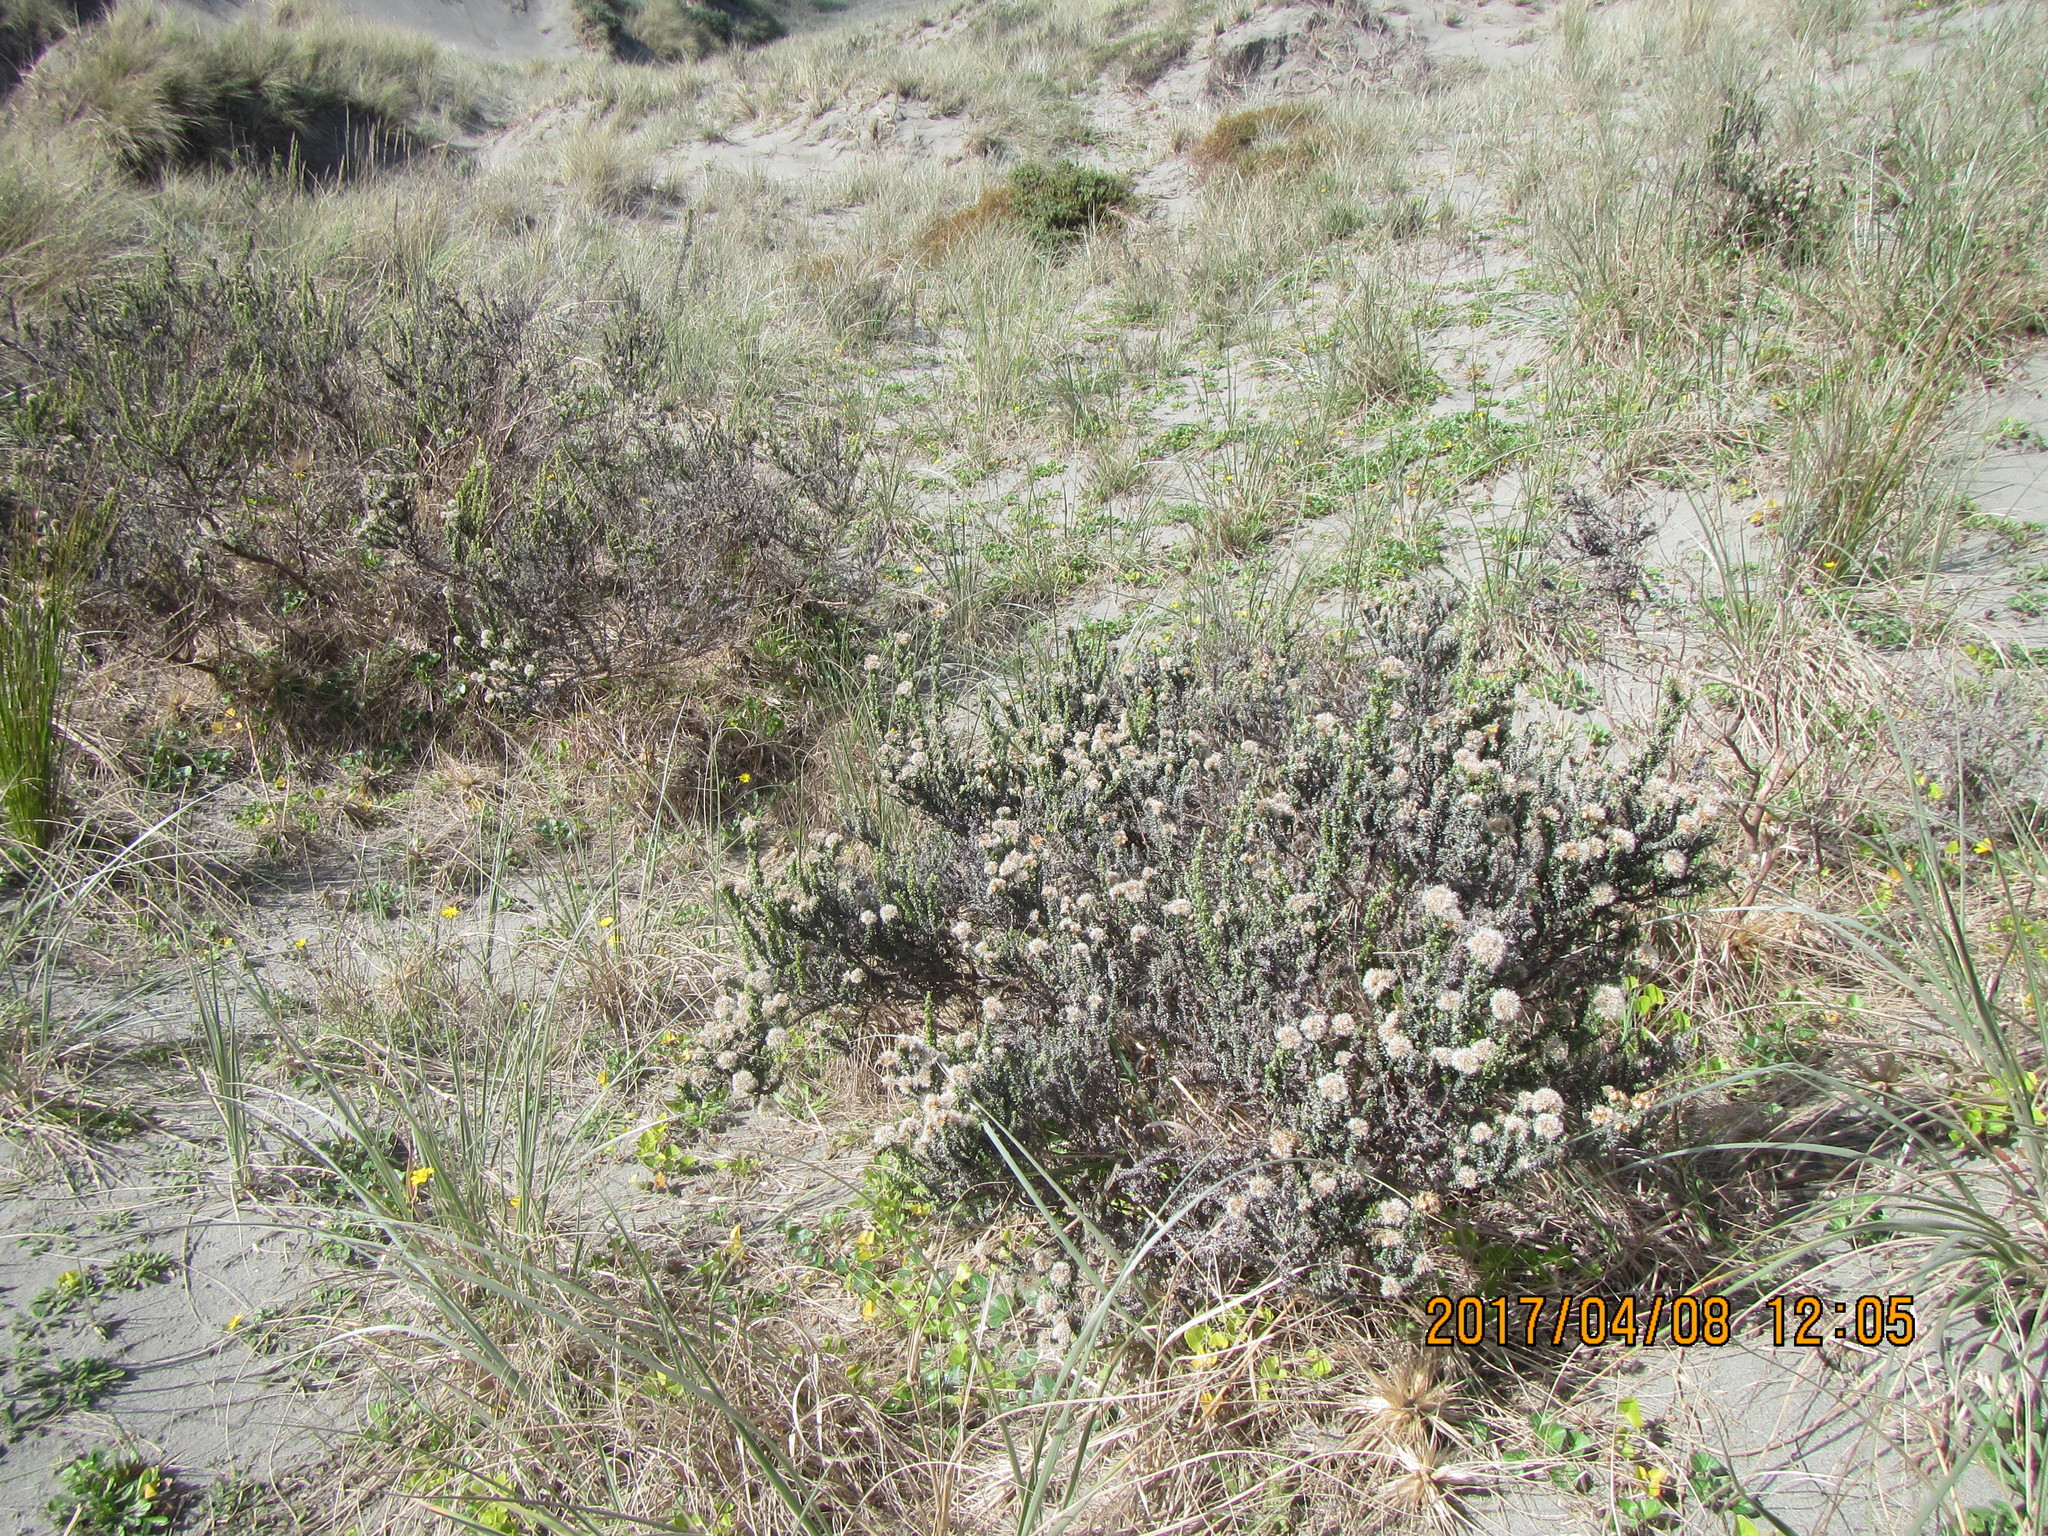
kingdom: Plantae
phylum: Tracheophyta
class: Magnoliopsida
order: Asterales
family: Asteraceae
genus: Ozothamnus
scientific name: Ozothamnus leptophyllus
